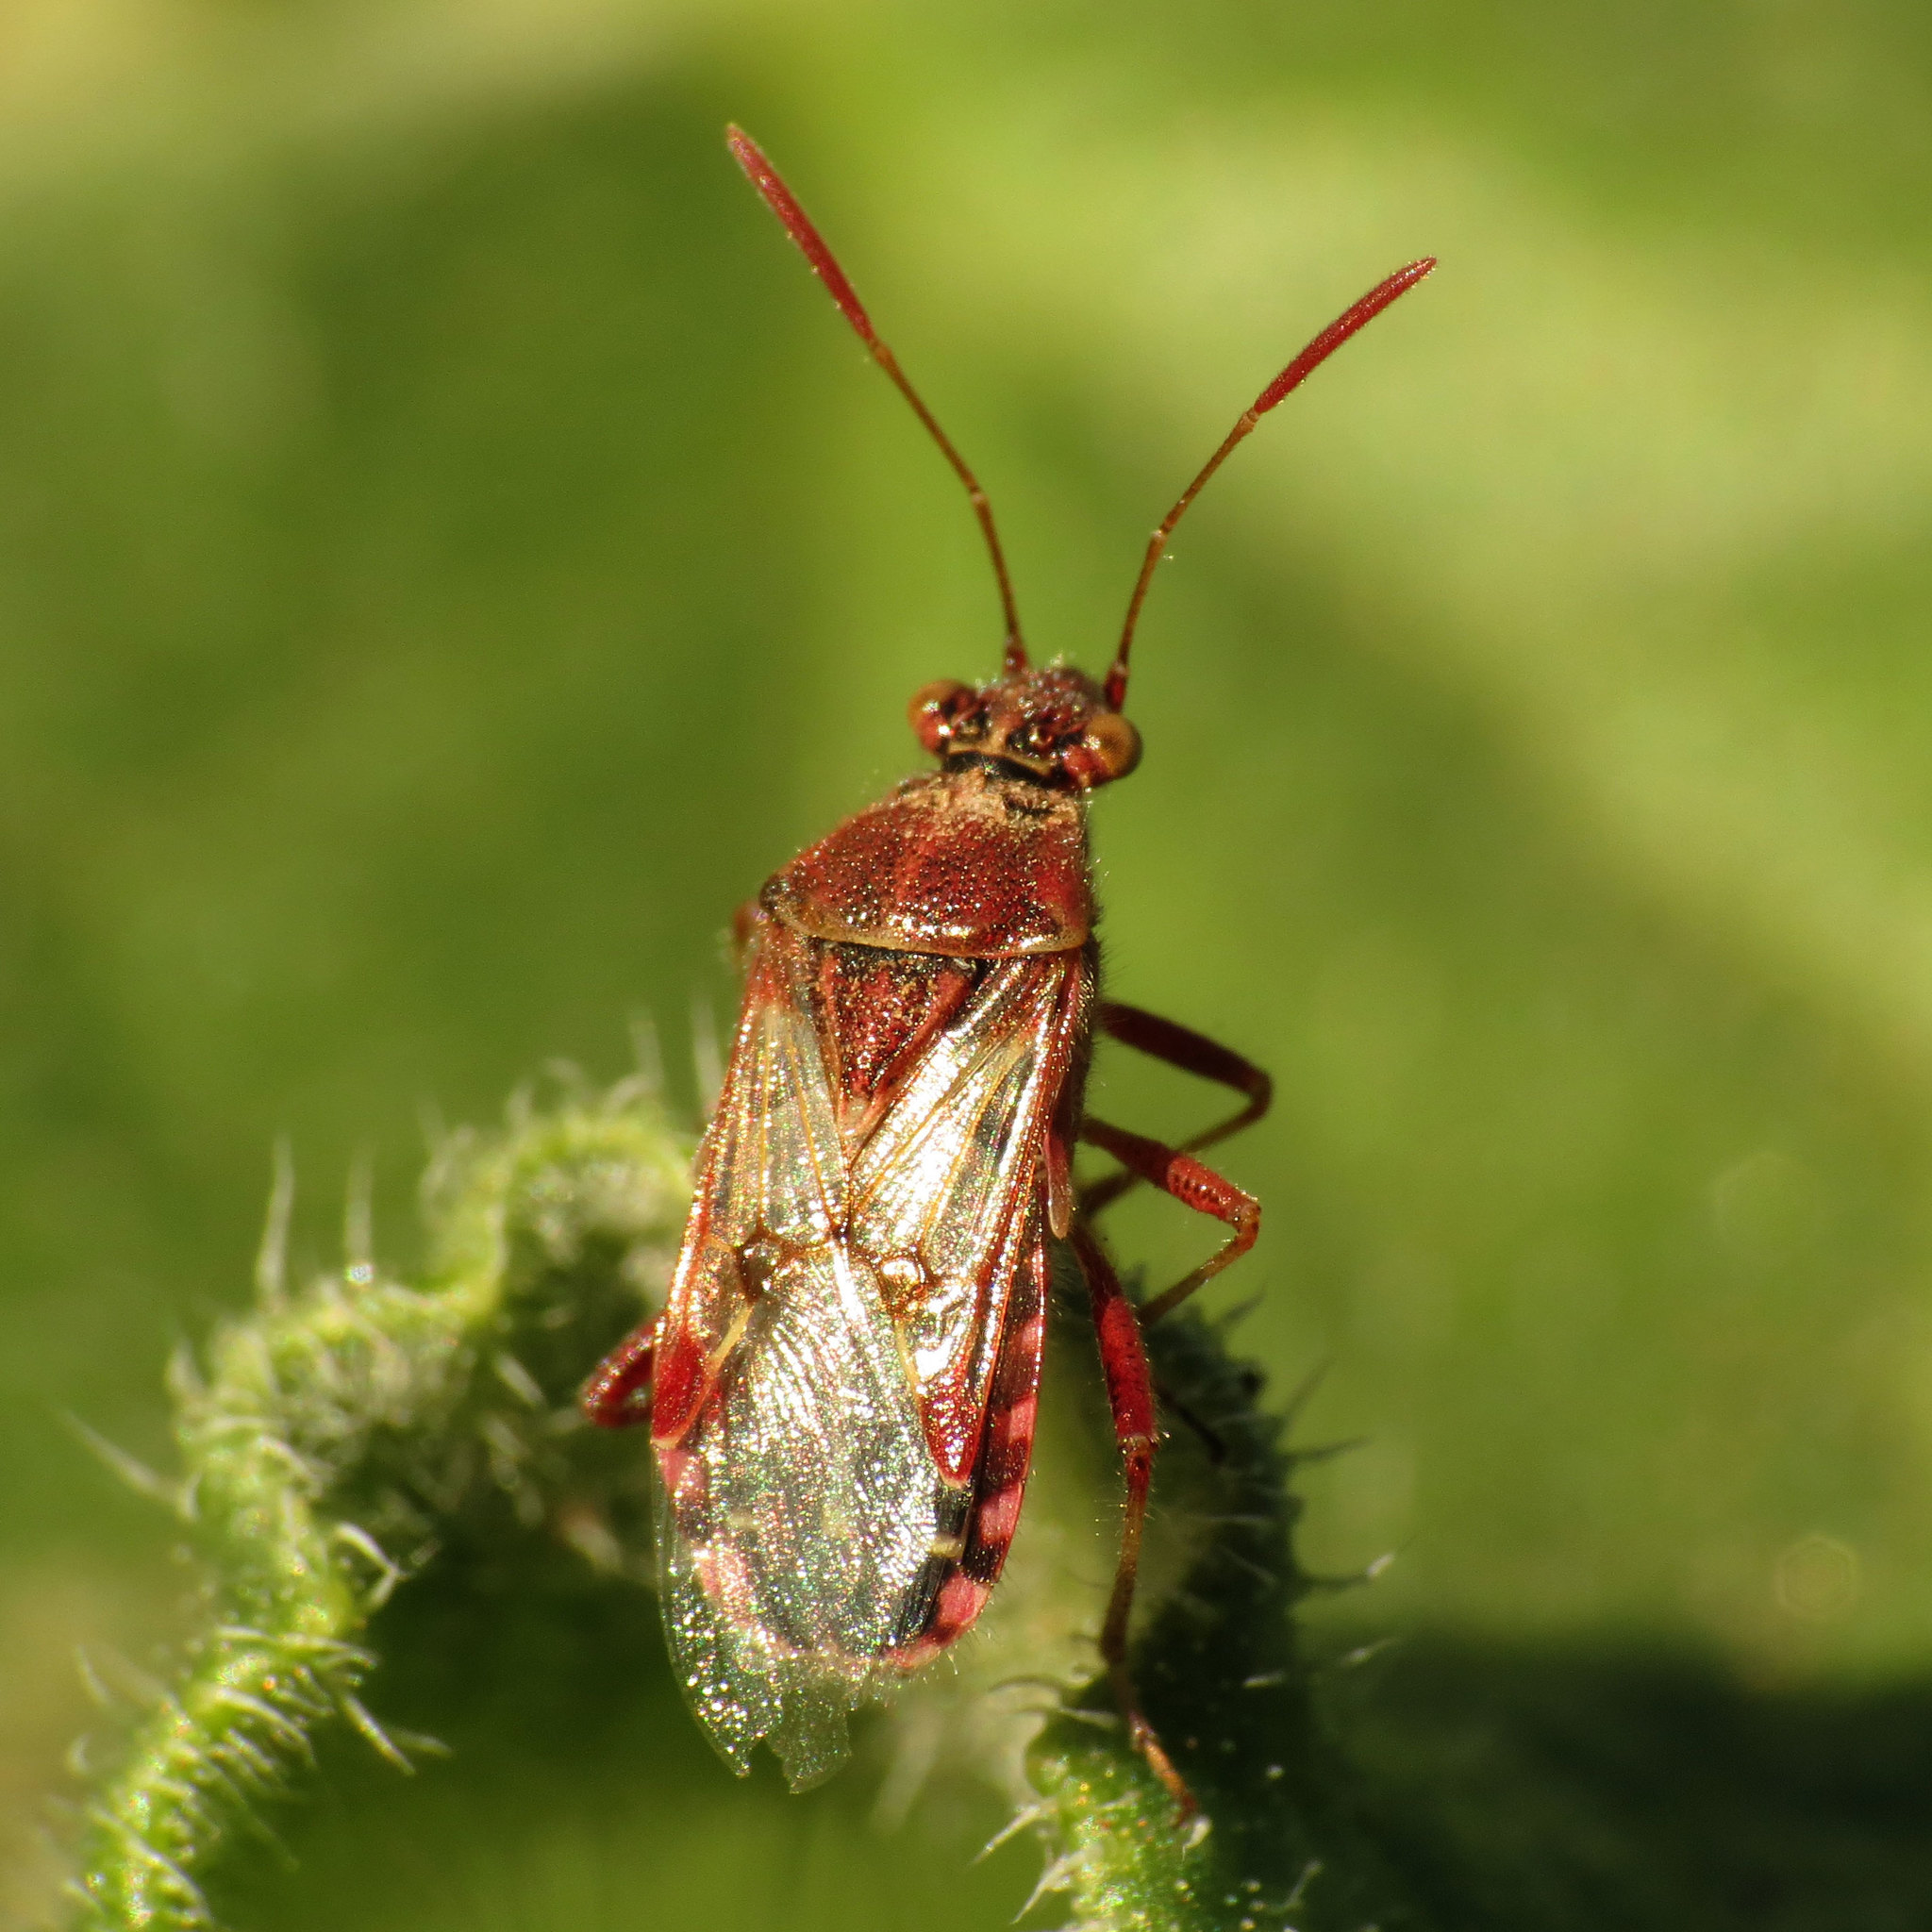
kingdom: Animalia
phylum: Arthropoda
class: Insecta
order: Hemiptera
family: Rhopalidae
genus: Liorhyssus
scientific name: Liorhyssus hyalinus
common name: Scentless plant bug
